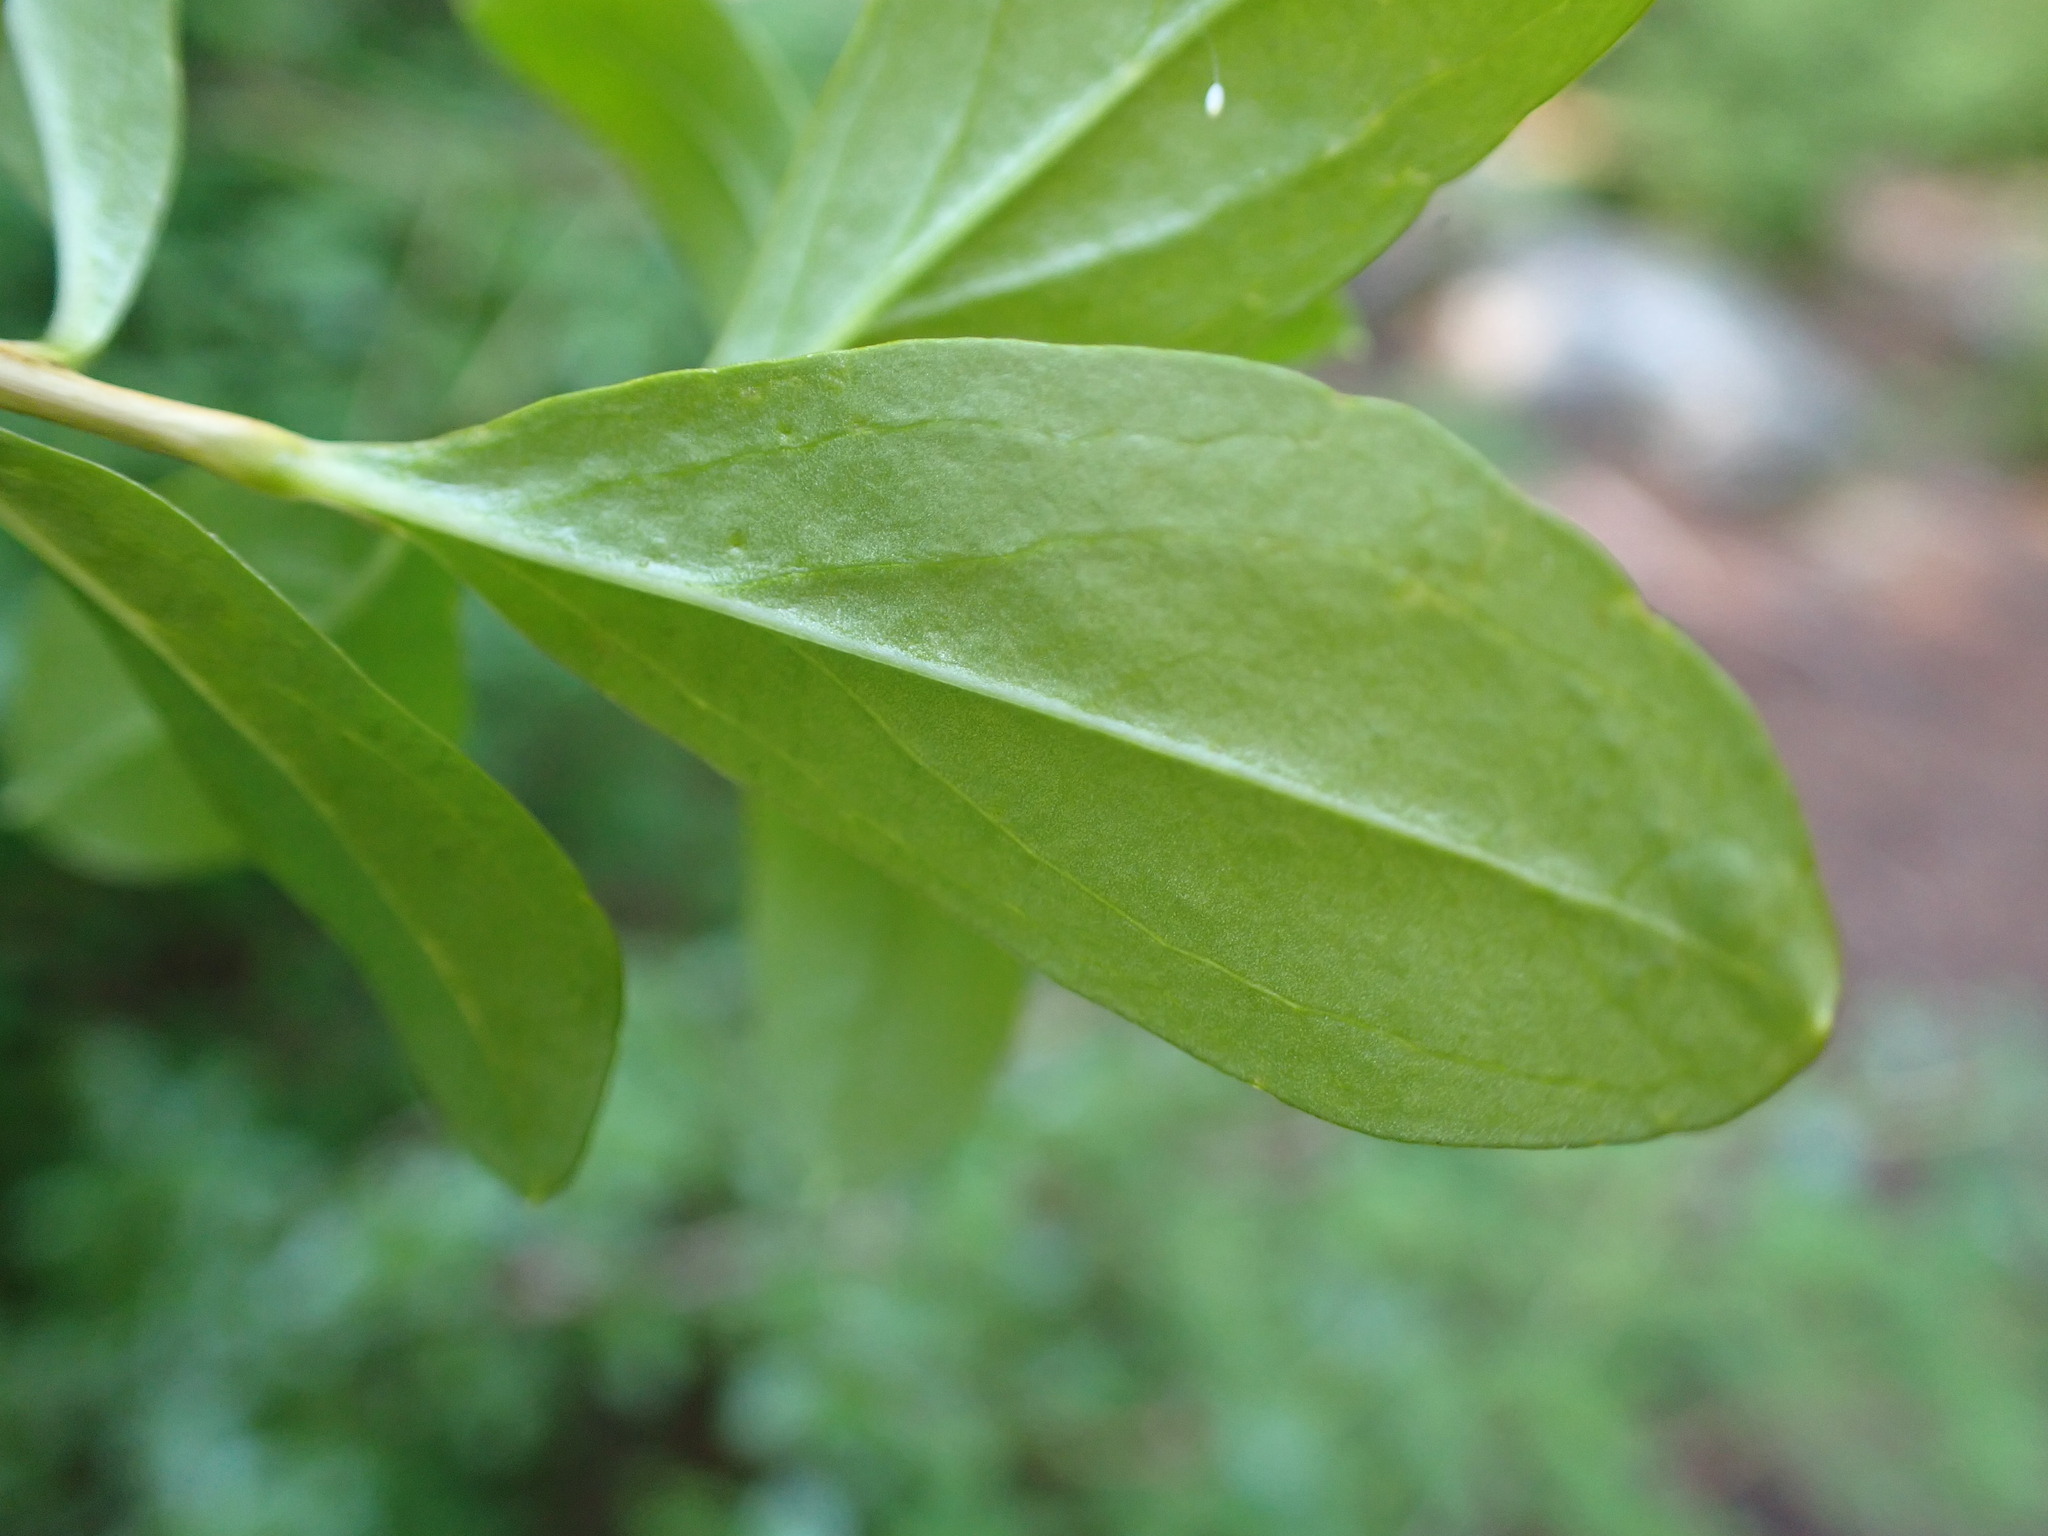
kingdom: Plantae
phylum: Tracheophyta
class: Magnoliopsida
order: Ericales
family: Ericaceae
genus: Elliottia
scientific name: Elliottia pyroliflora
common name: Copperbush
